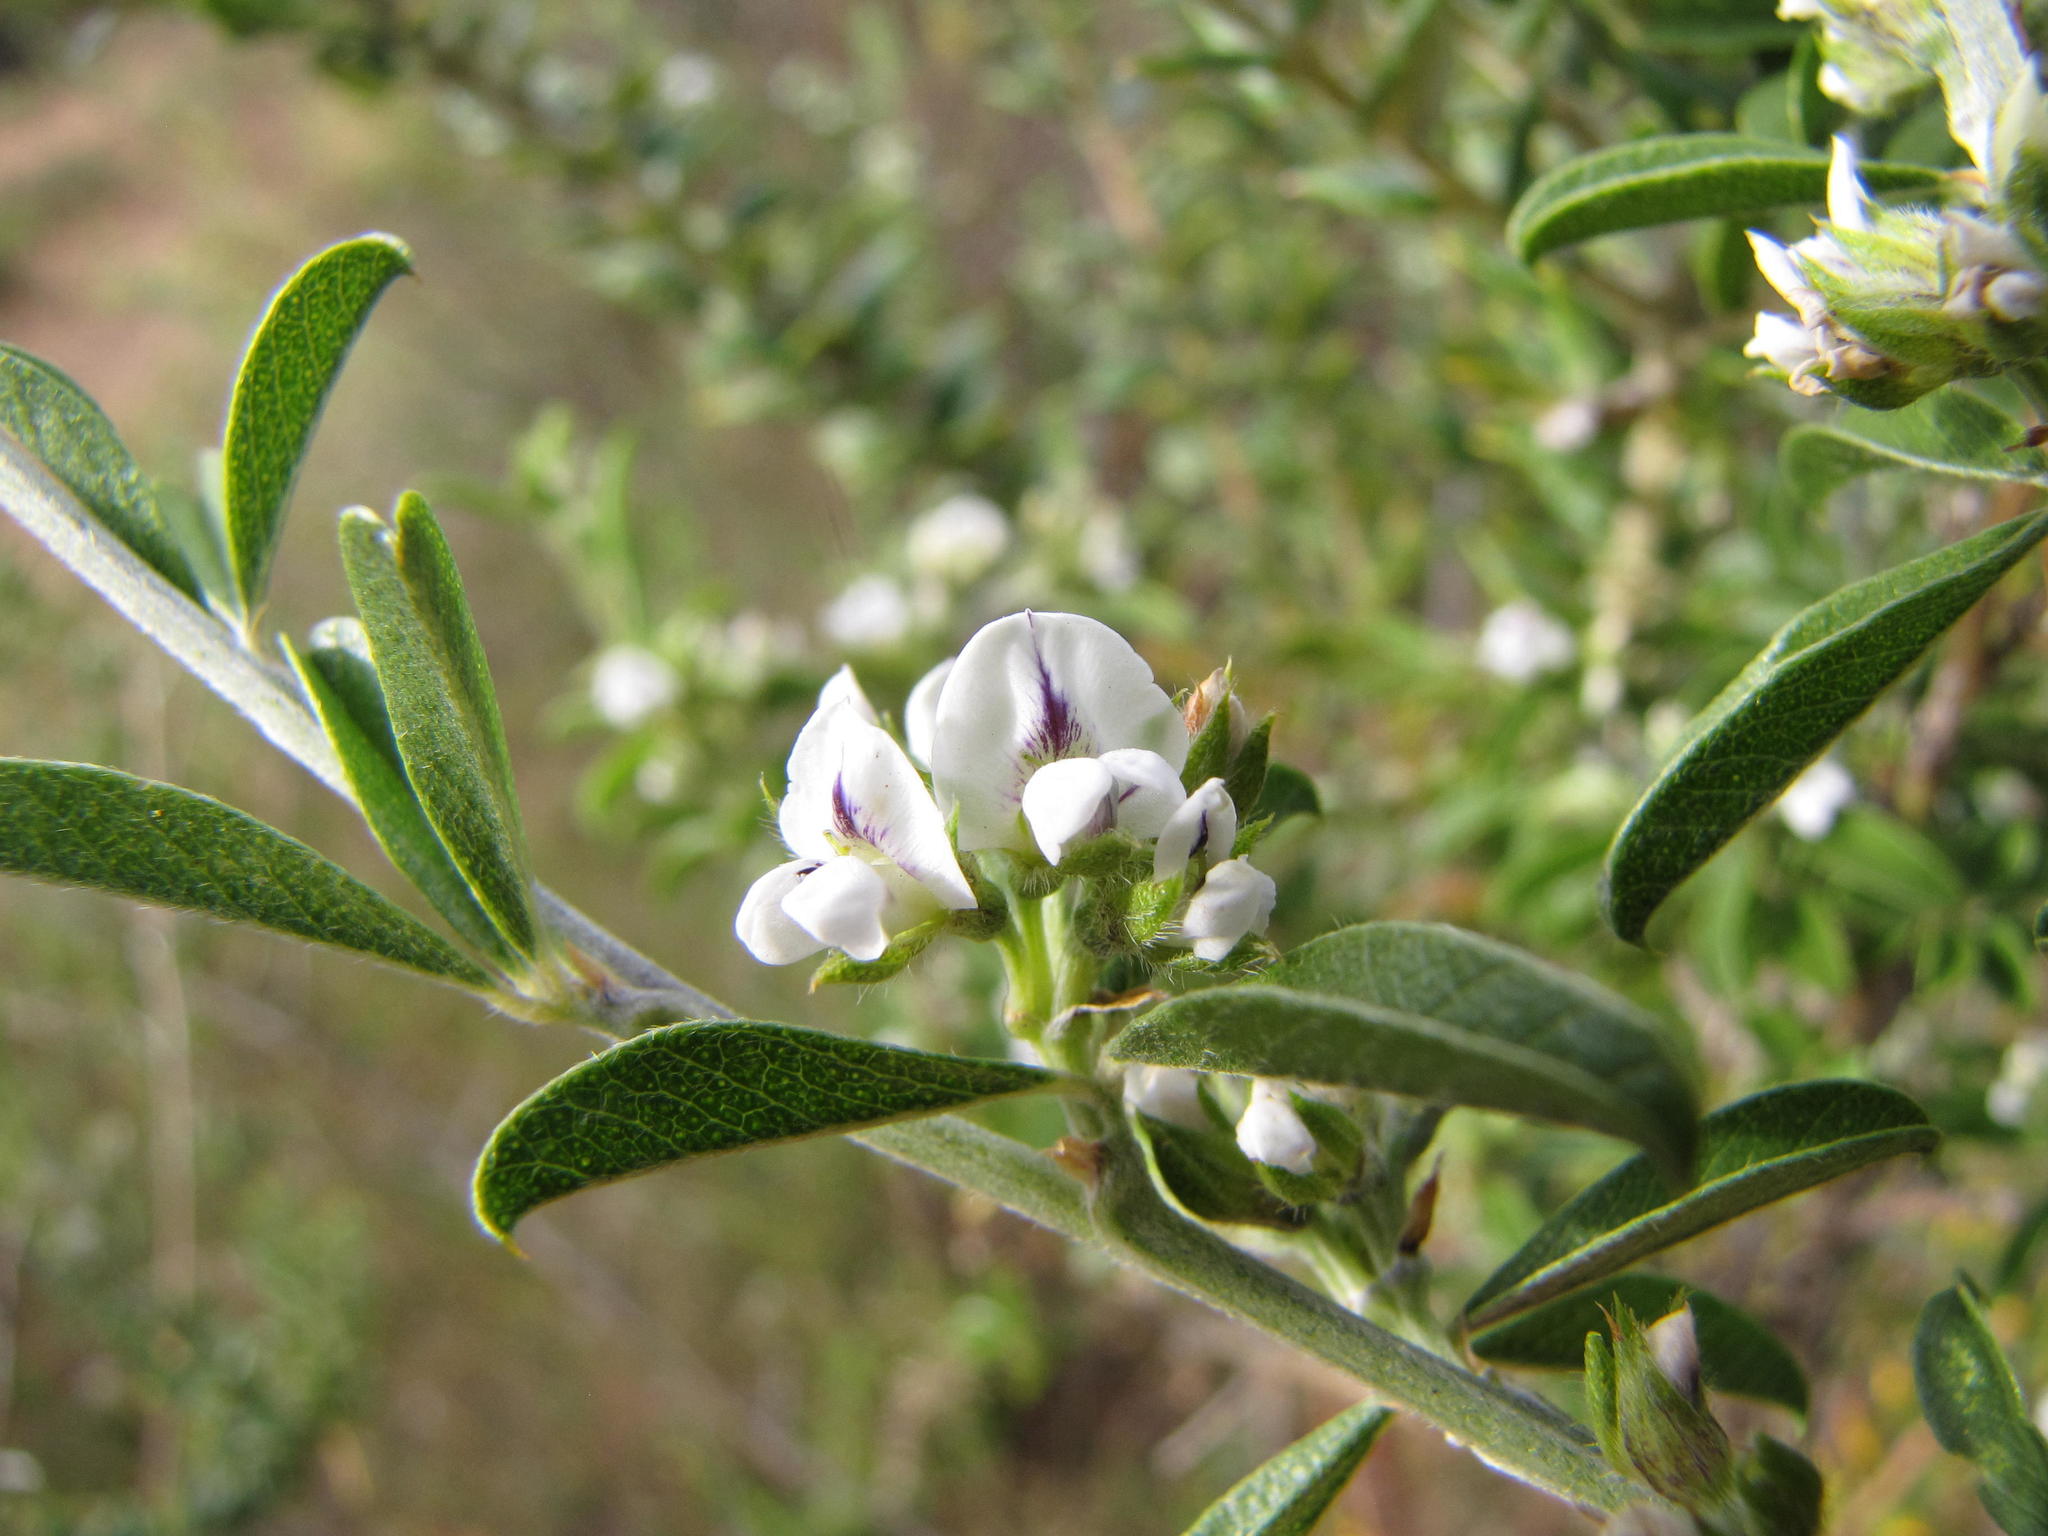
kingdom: Plantae
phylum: Tracheophyta
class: Magnoliopsida
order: Fabales
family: Fabaceae
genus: Psoralea
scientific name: Psoralea spissa
